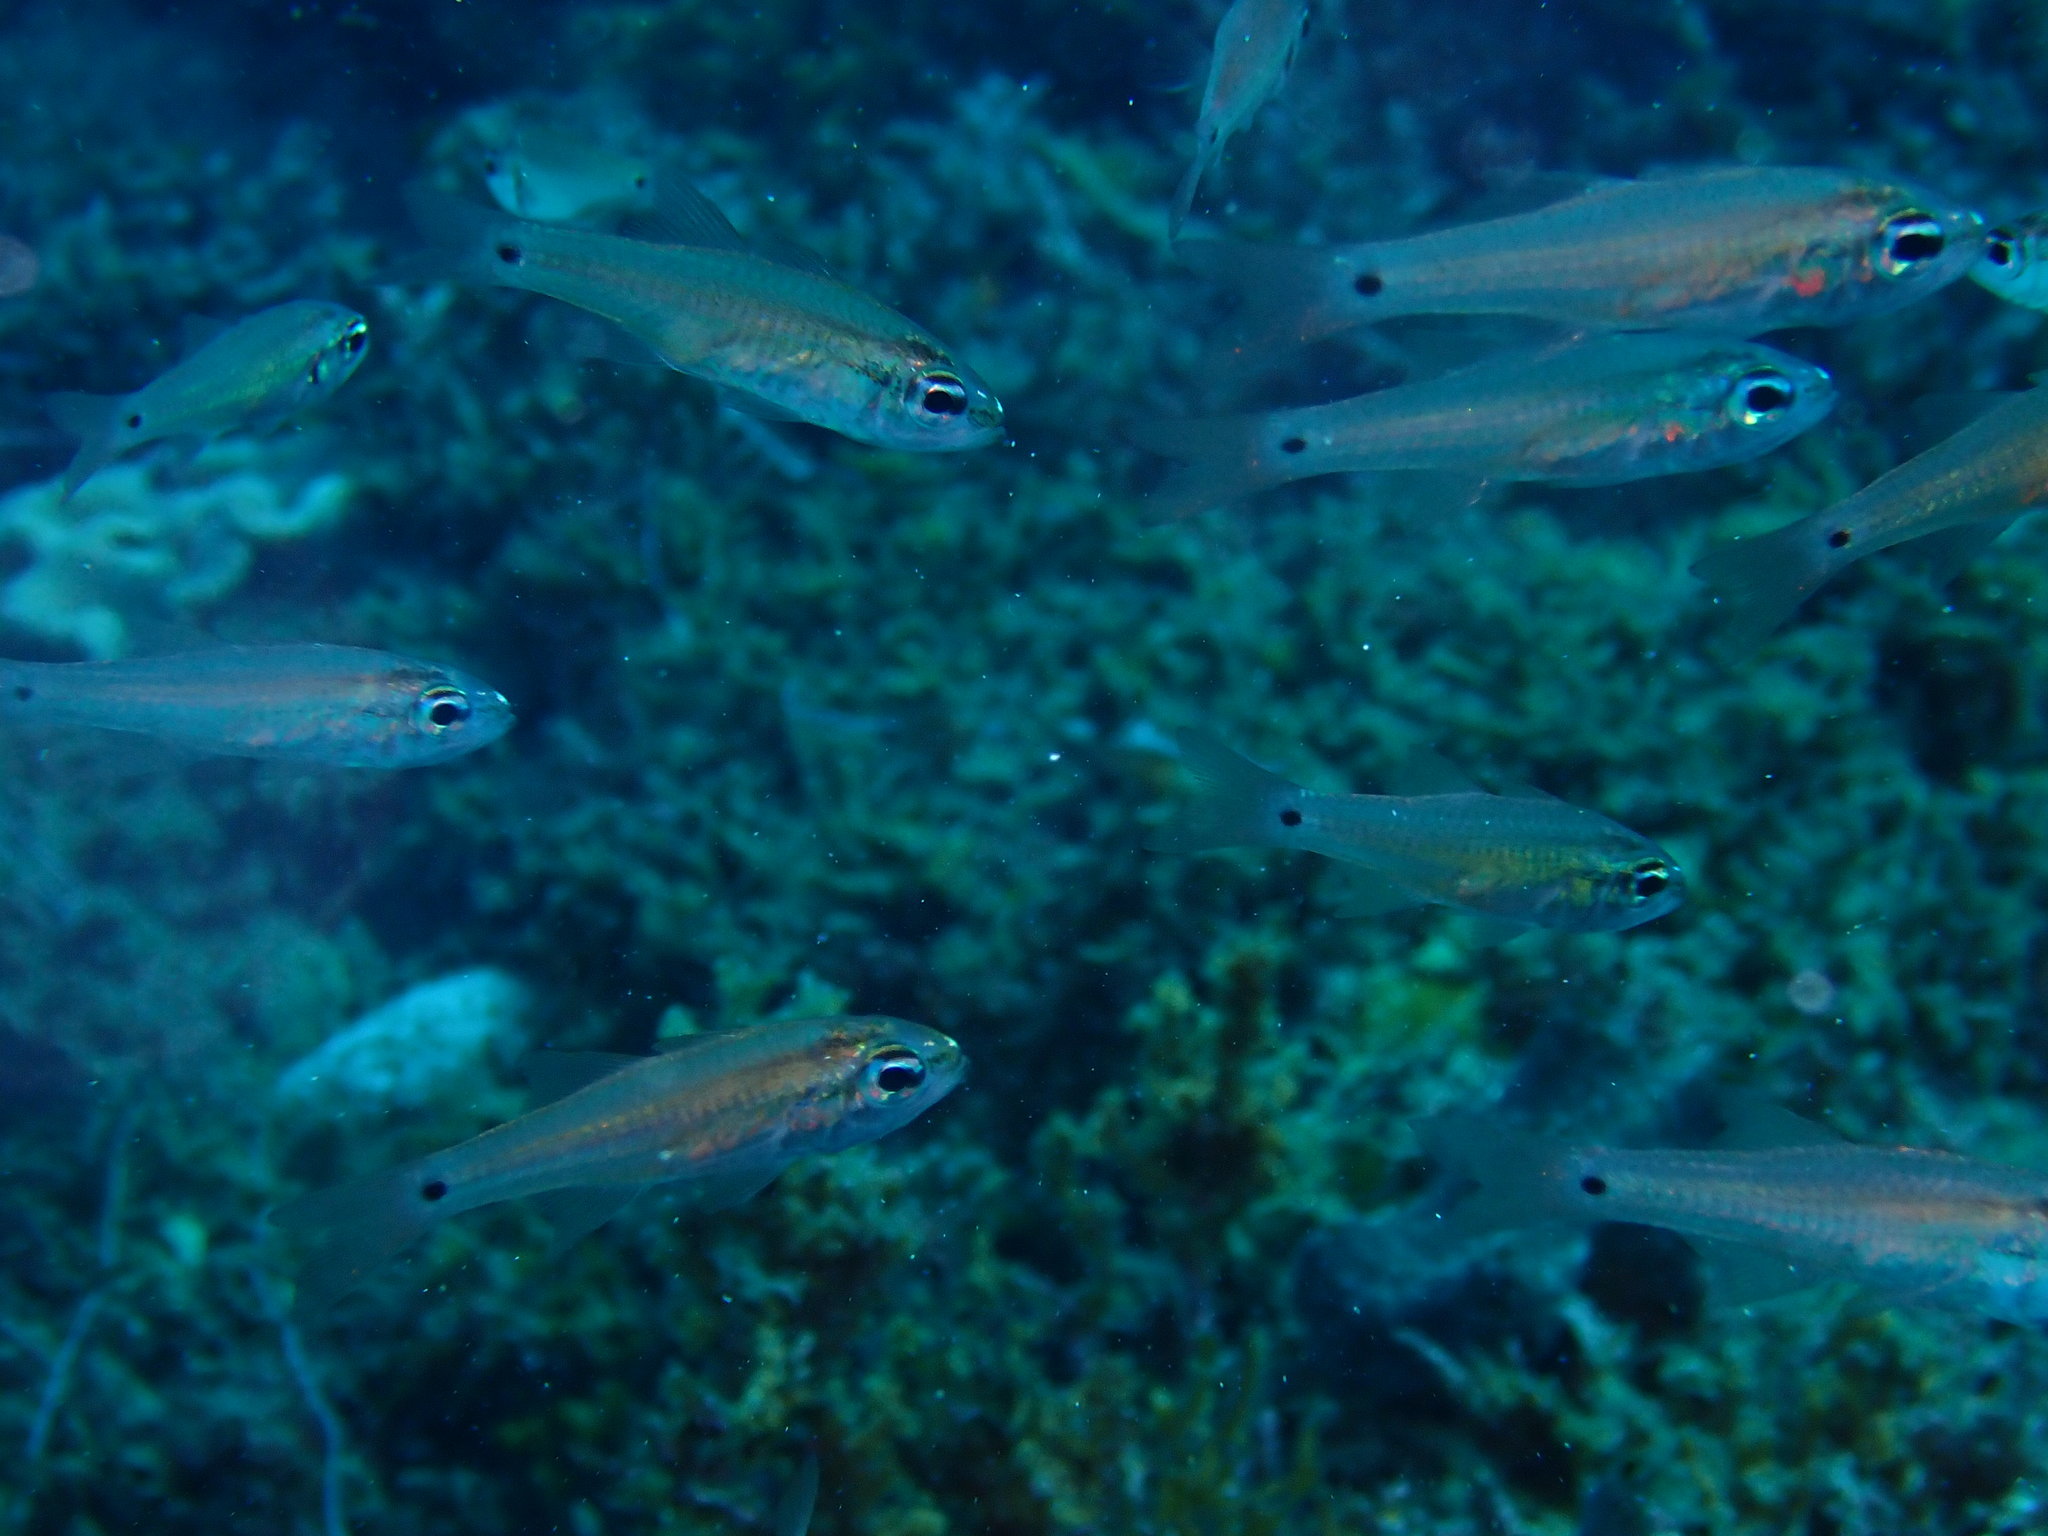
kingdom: Animalia
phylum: Chordata
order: Perciformes
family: Apogonidae
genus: Ostorhinchus
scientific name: Ostorhinchus flavus
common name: Brassy cardinalfish
